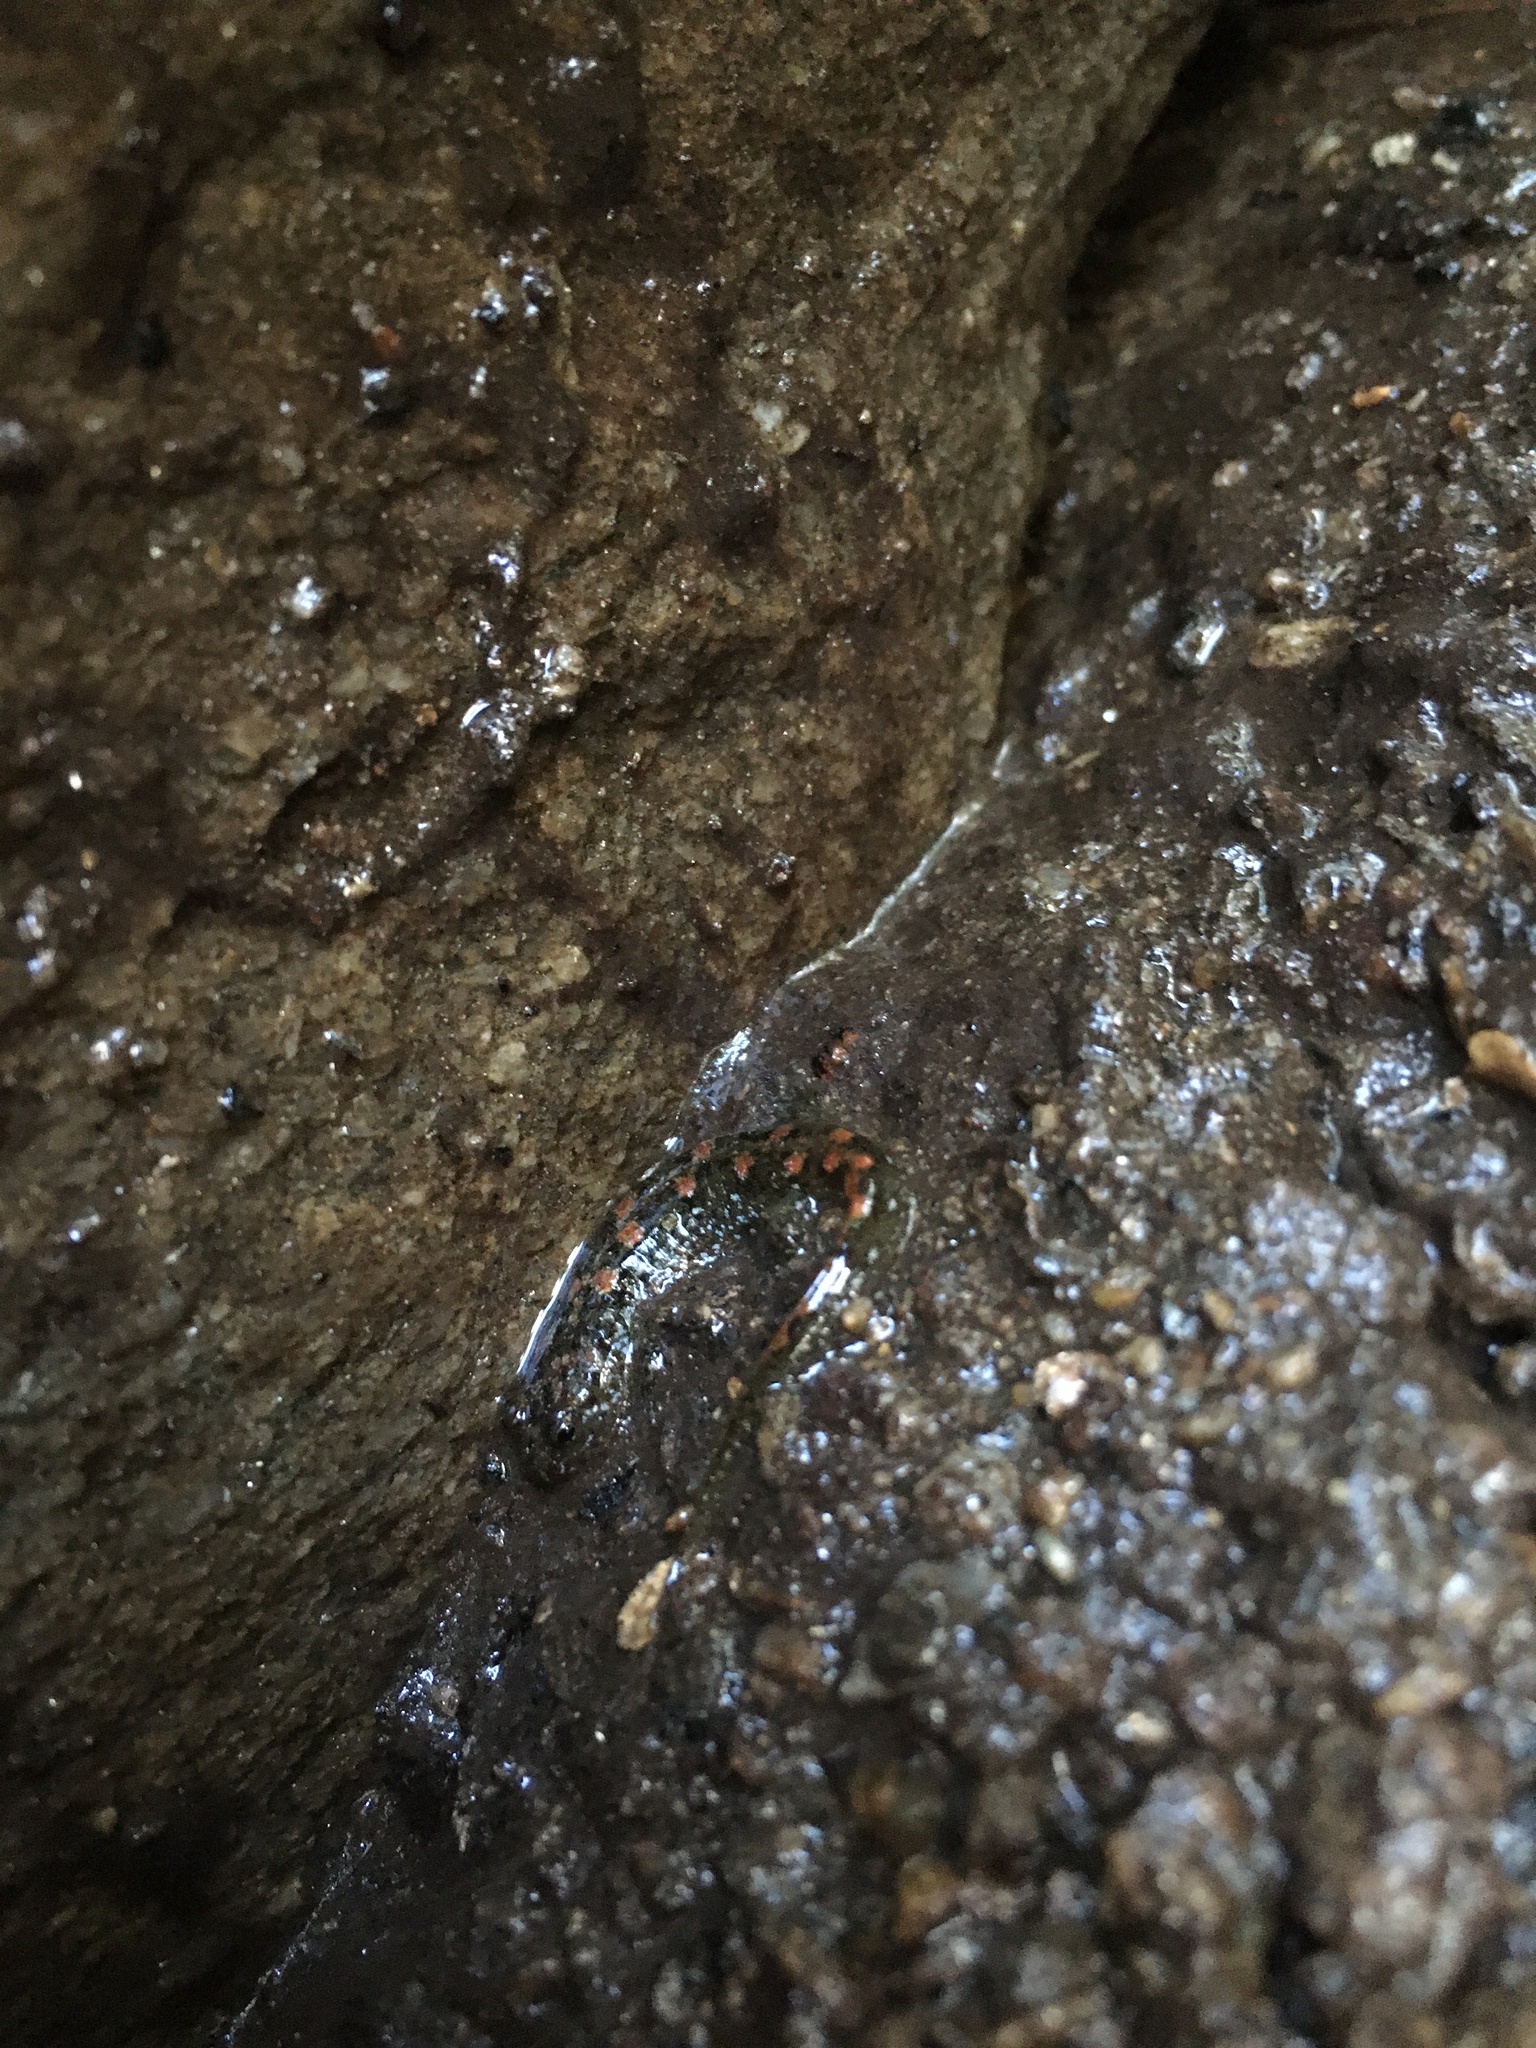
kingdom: Animalia
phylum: Chordata
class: Amphibia
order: Caudata
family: Plethodontidae
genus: Desmognathus
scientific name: Desmognathus monticola
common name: Seal salamander
